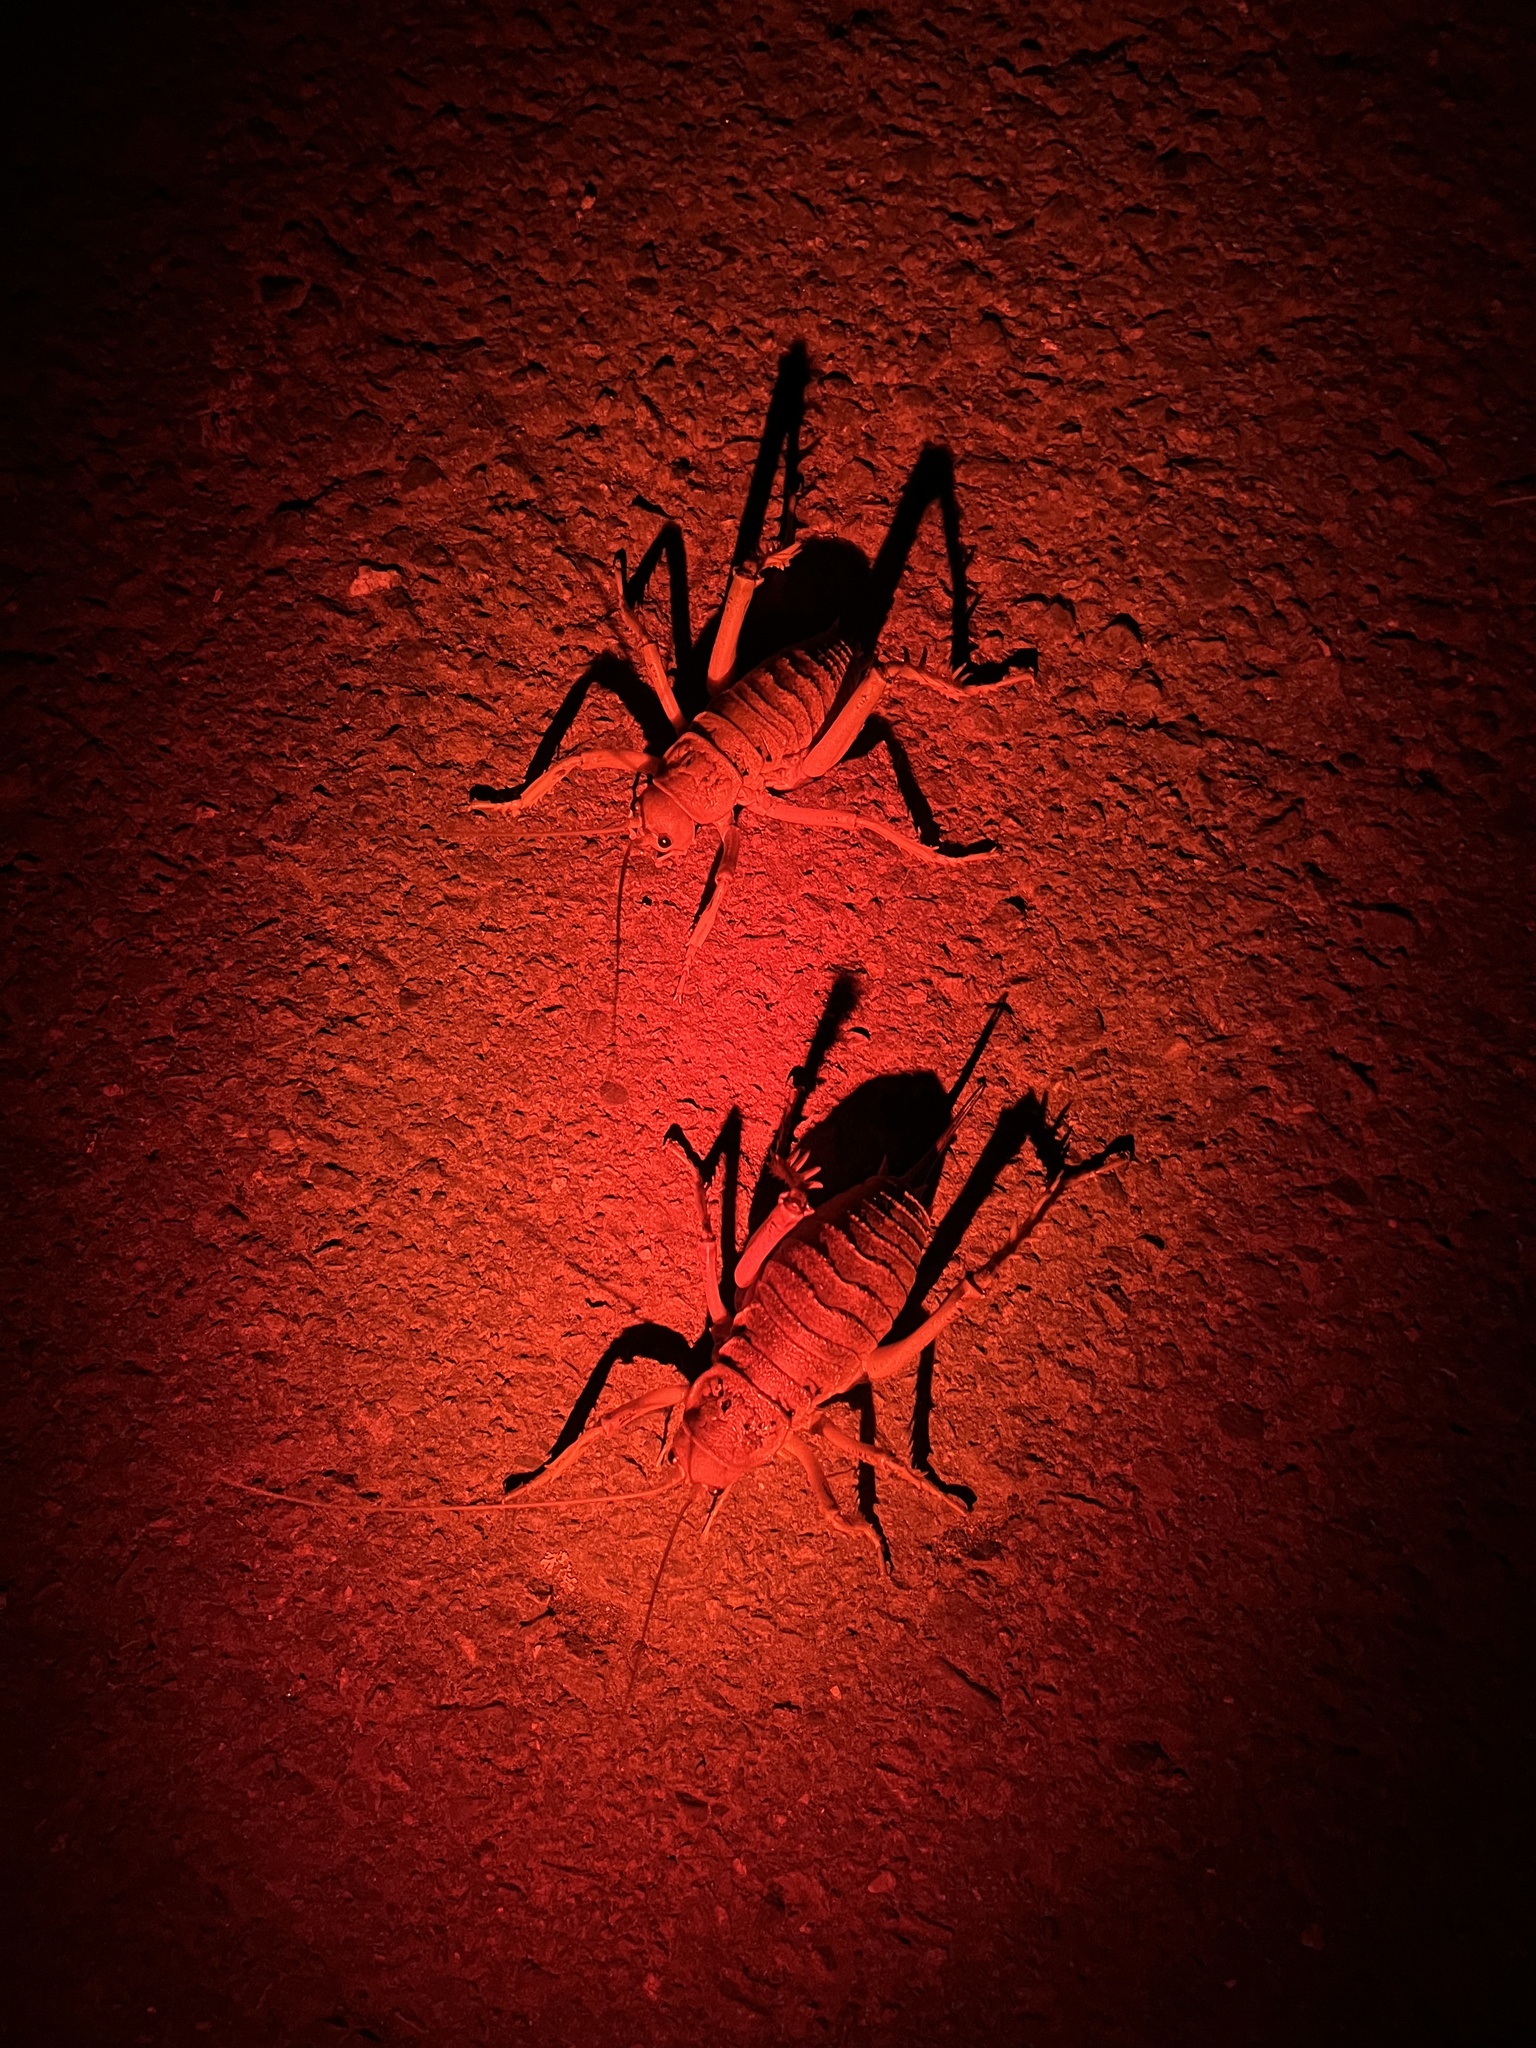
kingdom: Animalia
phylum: Arthropoda
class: Insecta
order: Orthoptera
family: Anostostomatidae
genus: Deinacrida
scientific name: Deinacrida rugosa
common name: Stephens island weta
